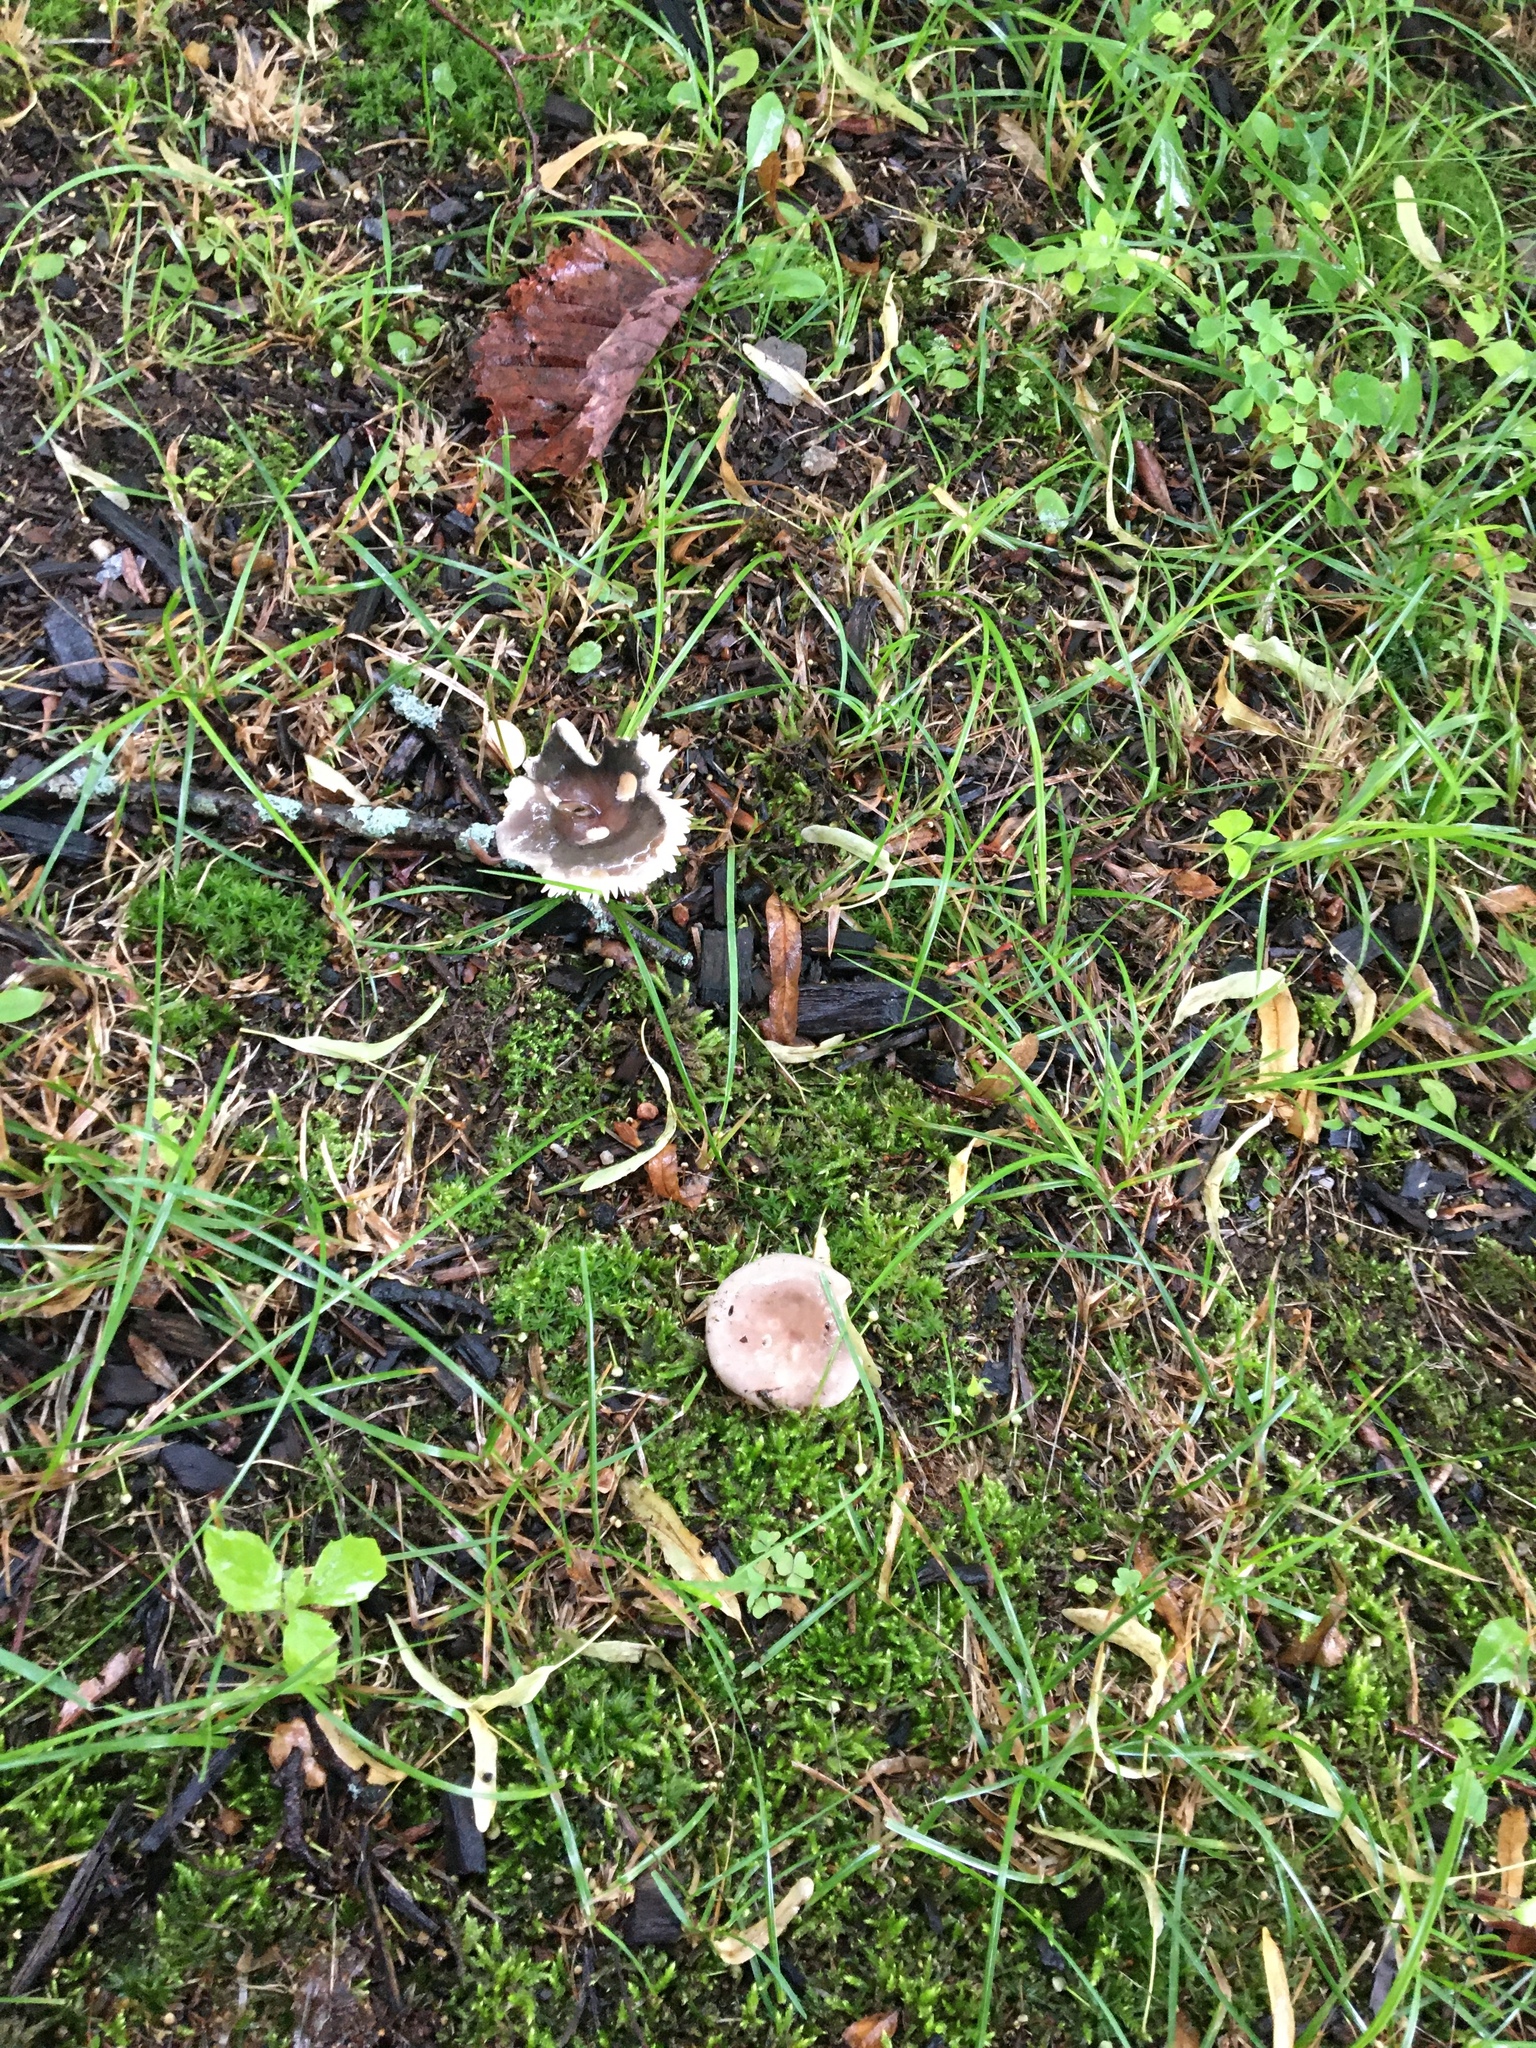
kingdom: Fungi
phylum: Basidiomycota
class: Agaricomycetes
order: Russulales
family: Russulaceae
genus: Russula
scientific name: Russula
